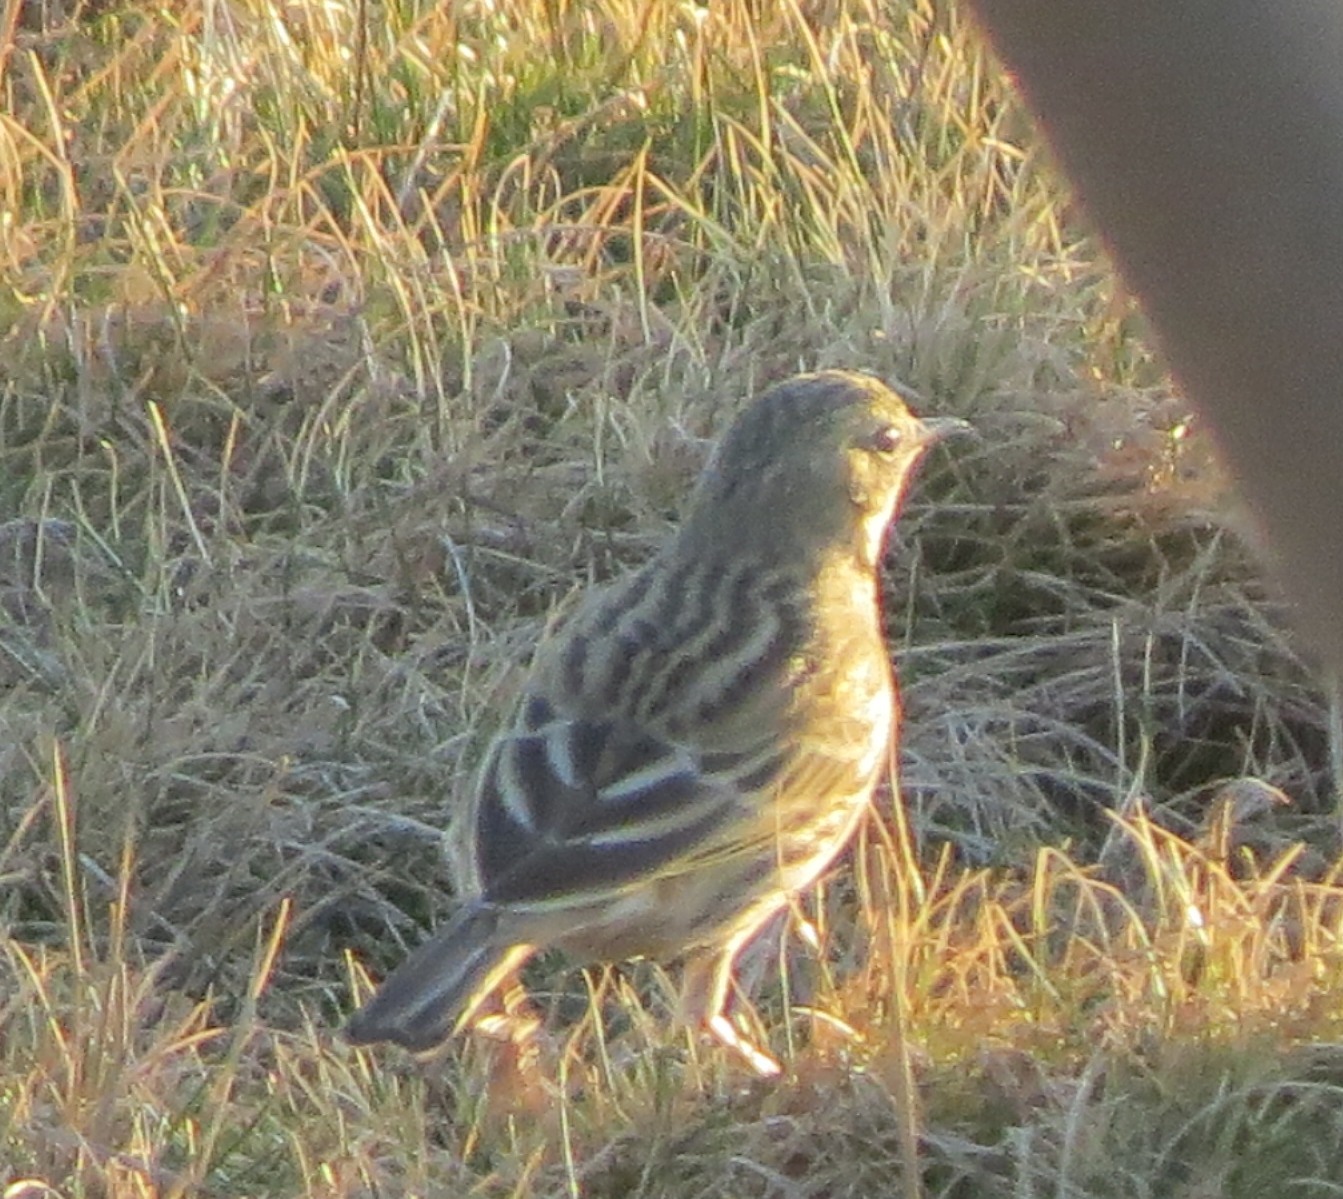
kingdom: Animalia
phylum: Chordata
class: Aves
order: Passeriformes
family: Motacillidae
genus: Anthus
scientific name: Anthus pratensis
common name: Meadow pipit
